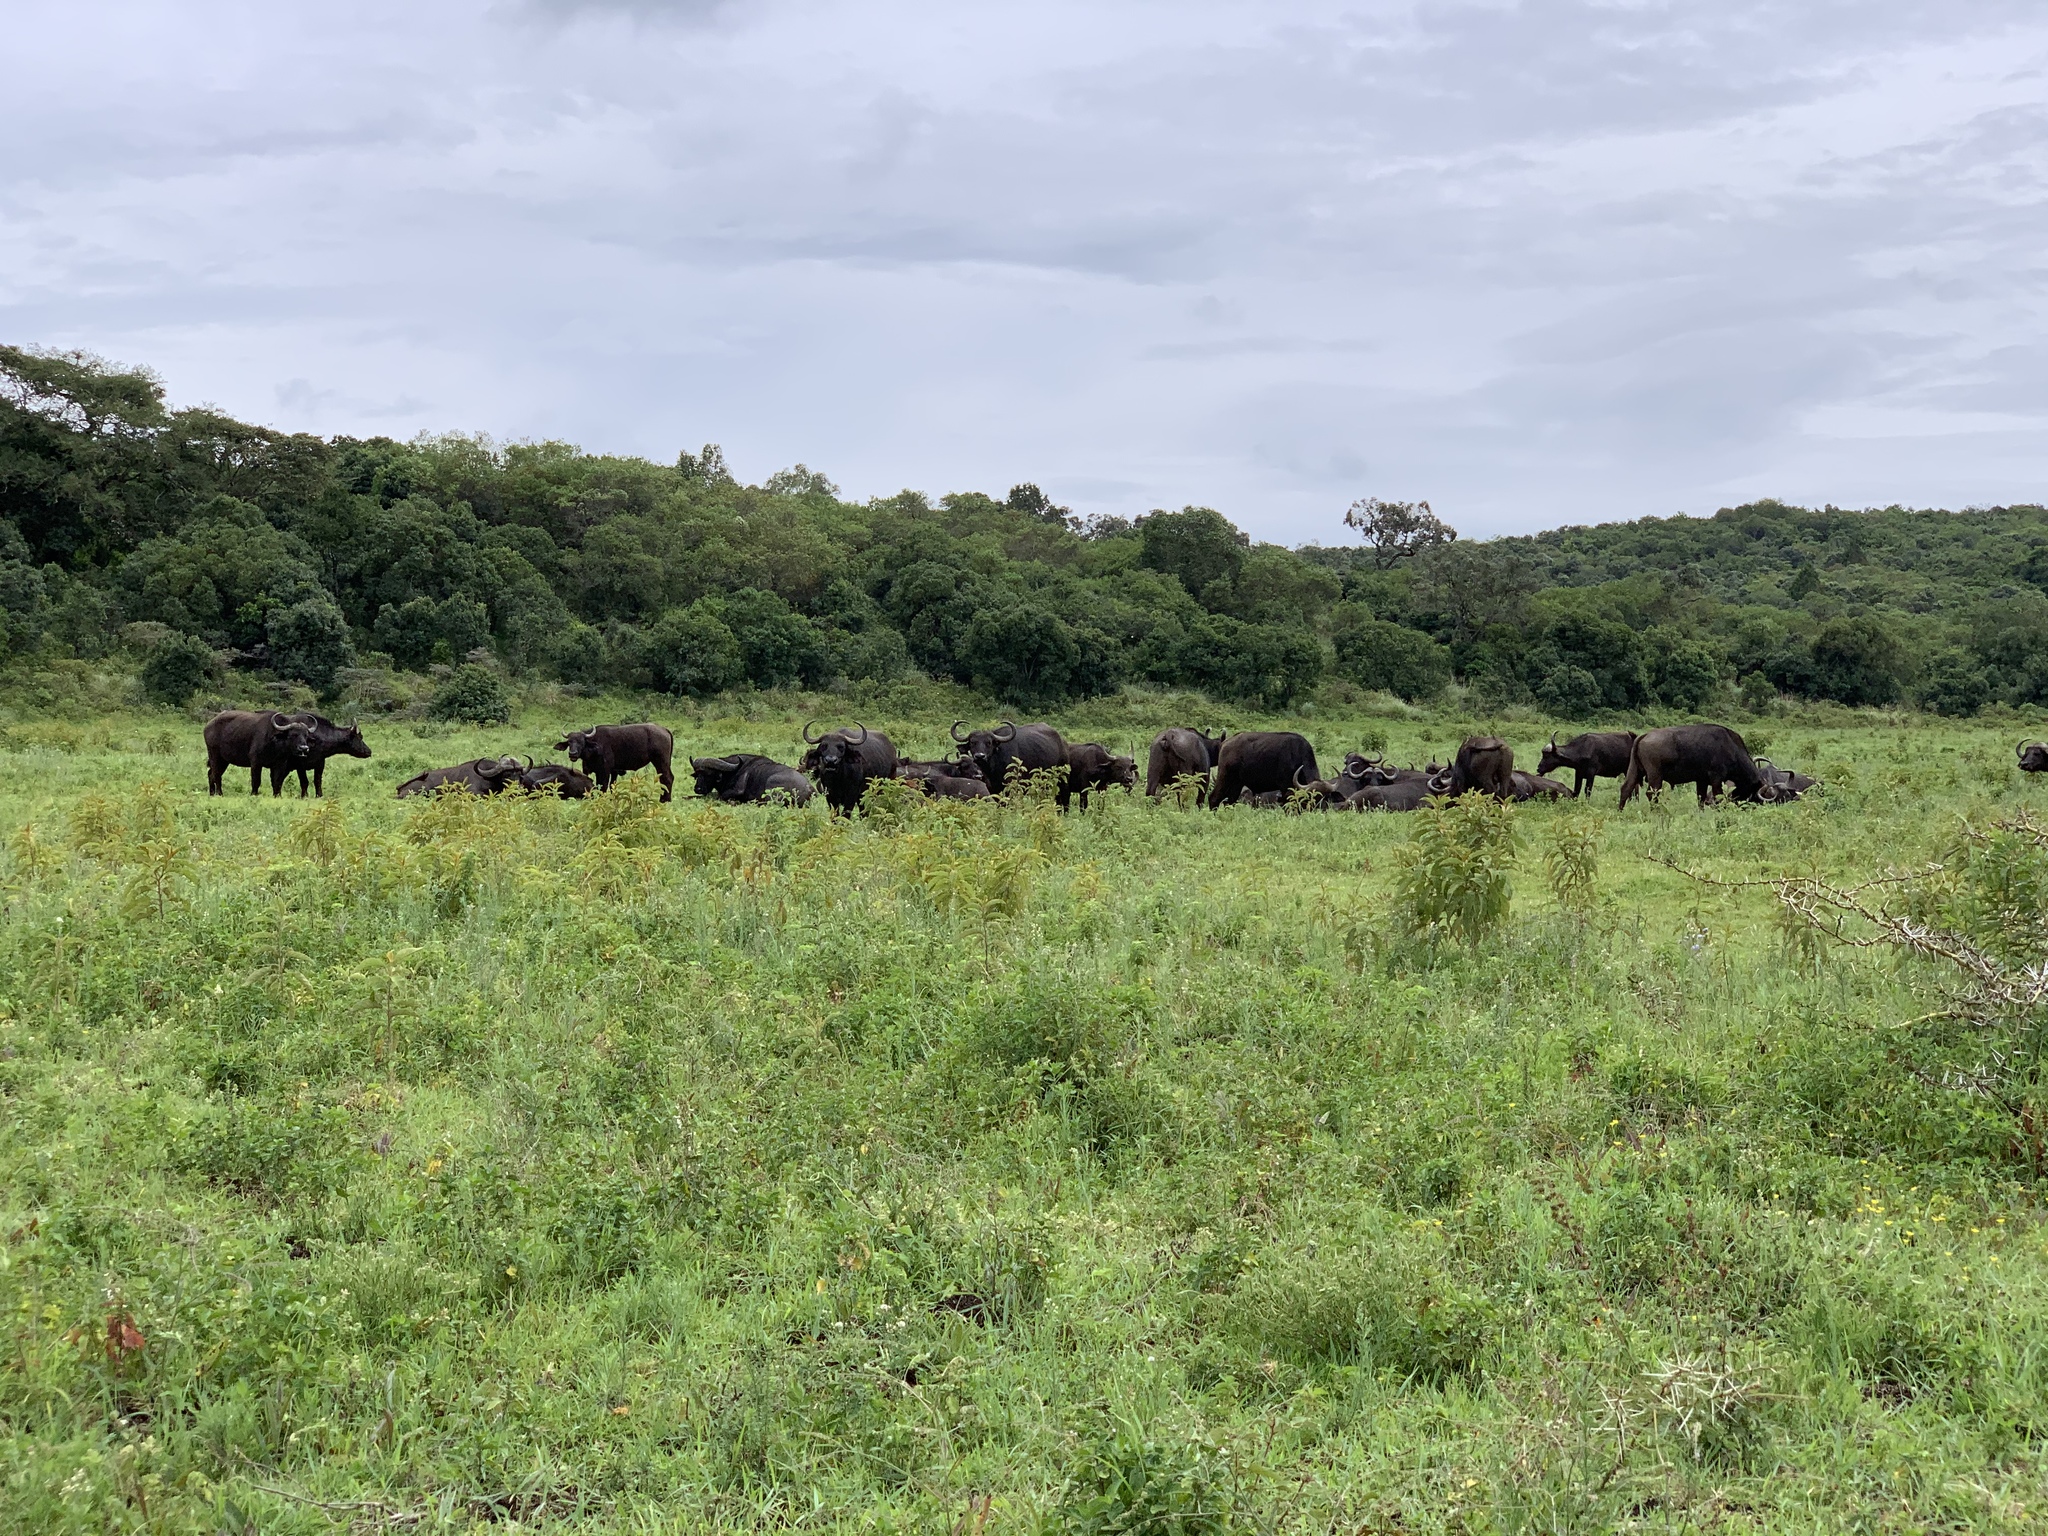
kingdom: Animalia
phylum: Chordata
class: Mammalia
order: Artiodactyla
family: Bovidae
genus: Syncerus
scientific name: Syncerus caffer
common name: African buffalo
